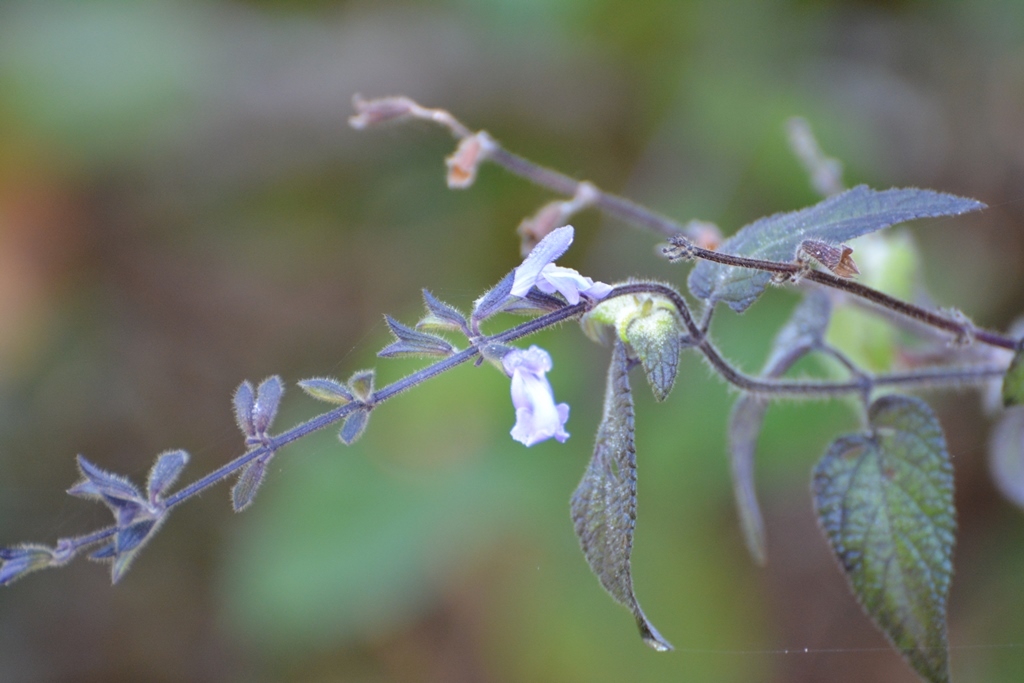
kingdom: Plantae
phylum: Tracheophyta
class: Magnoliopsida
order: Lamiales
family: Lamiaceae
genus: Salvia
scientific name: Salvia protracta
